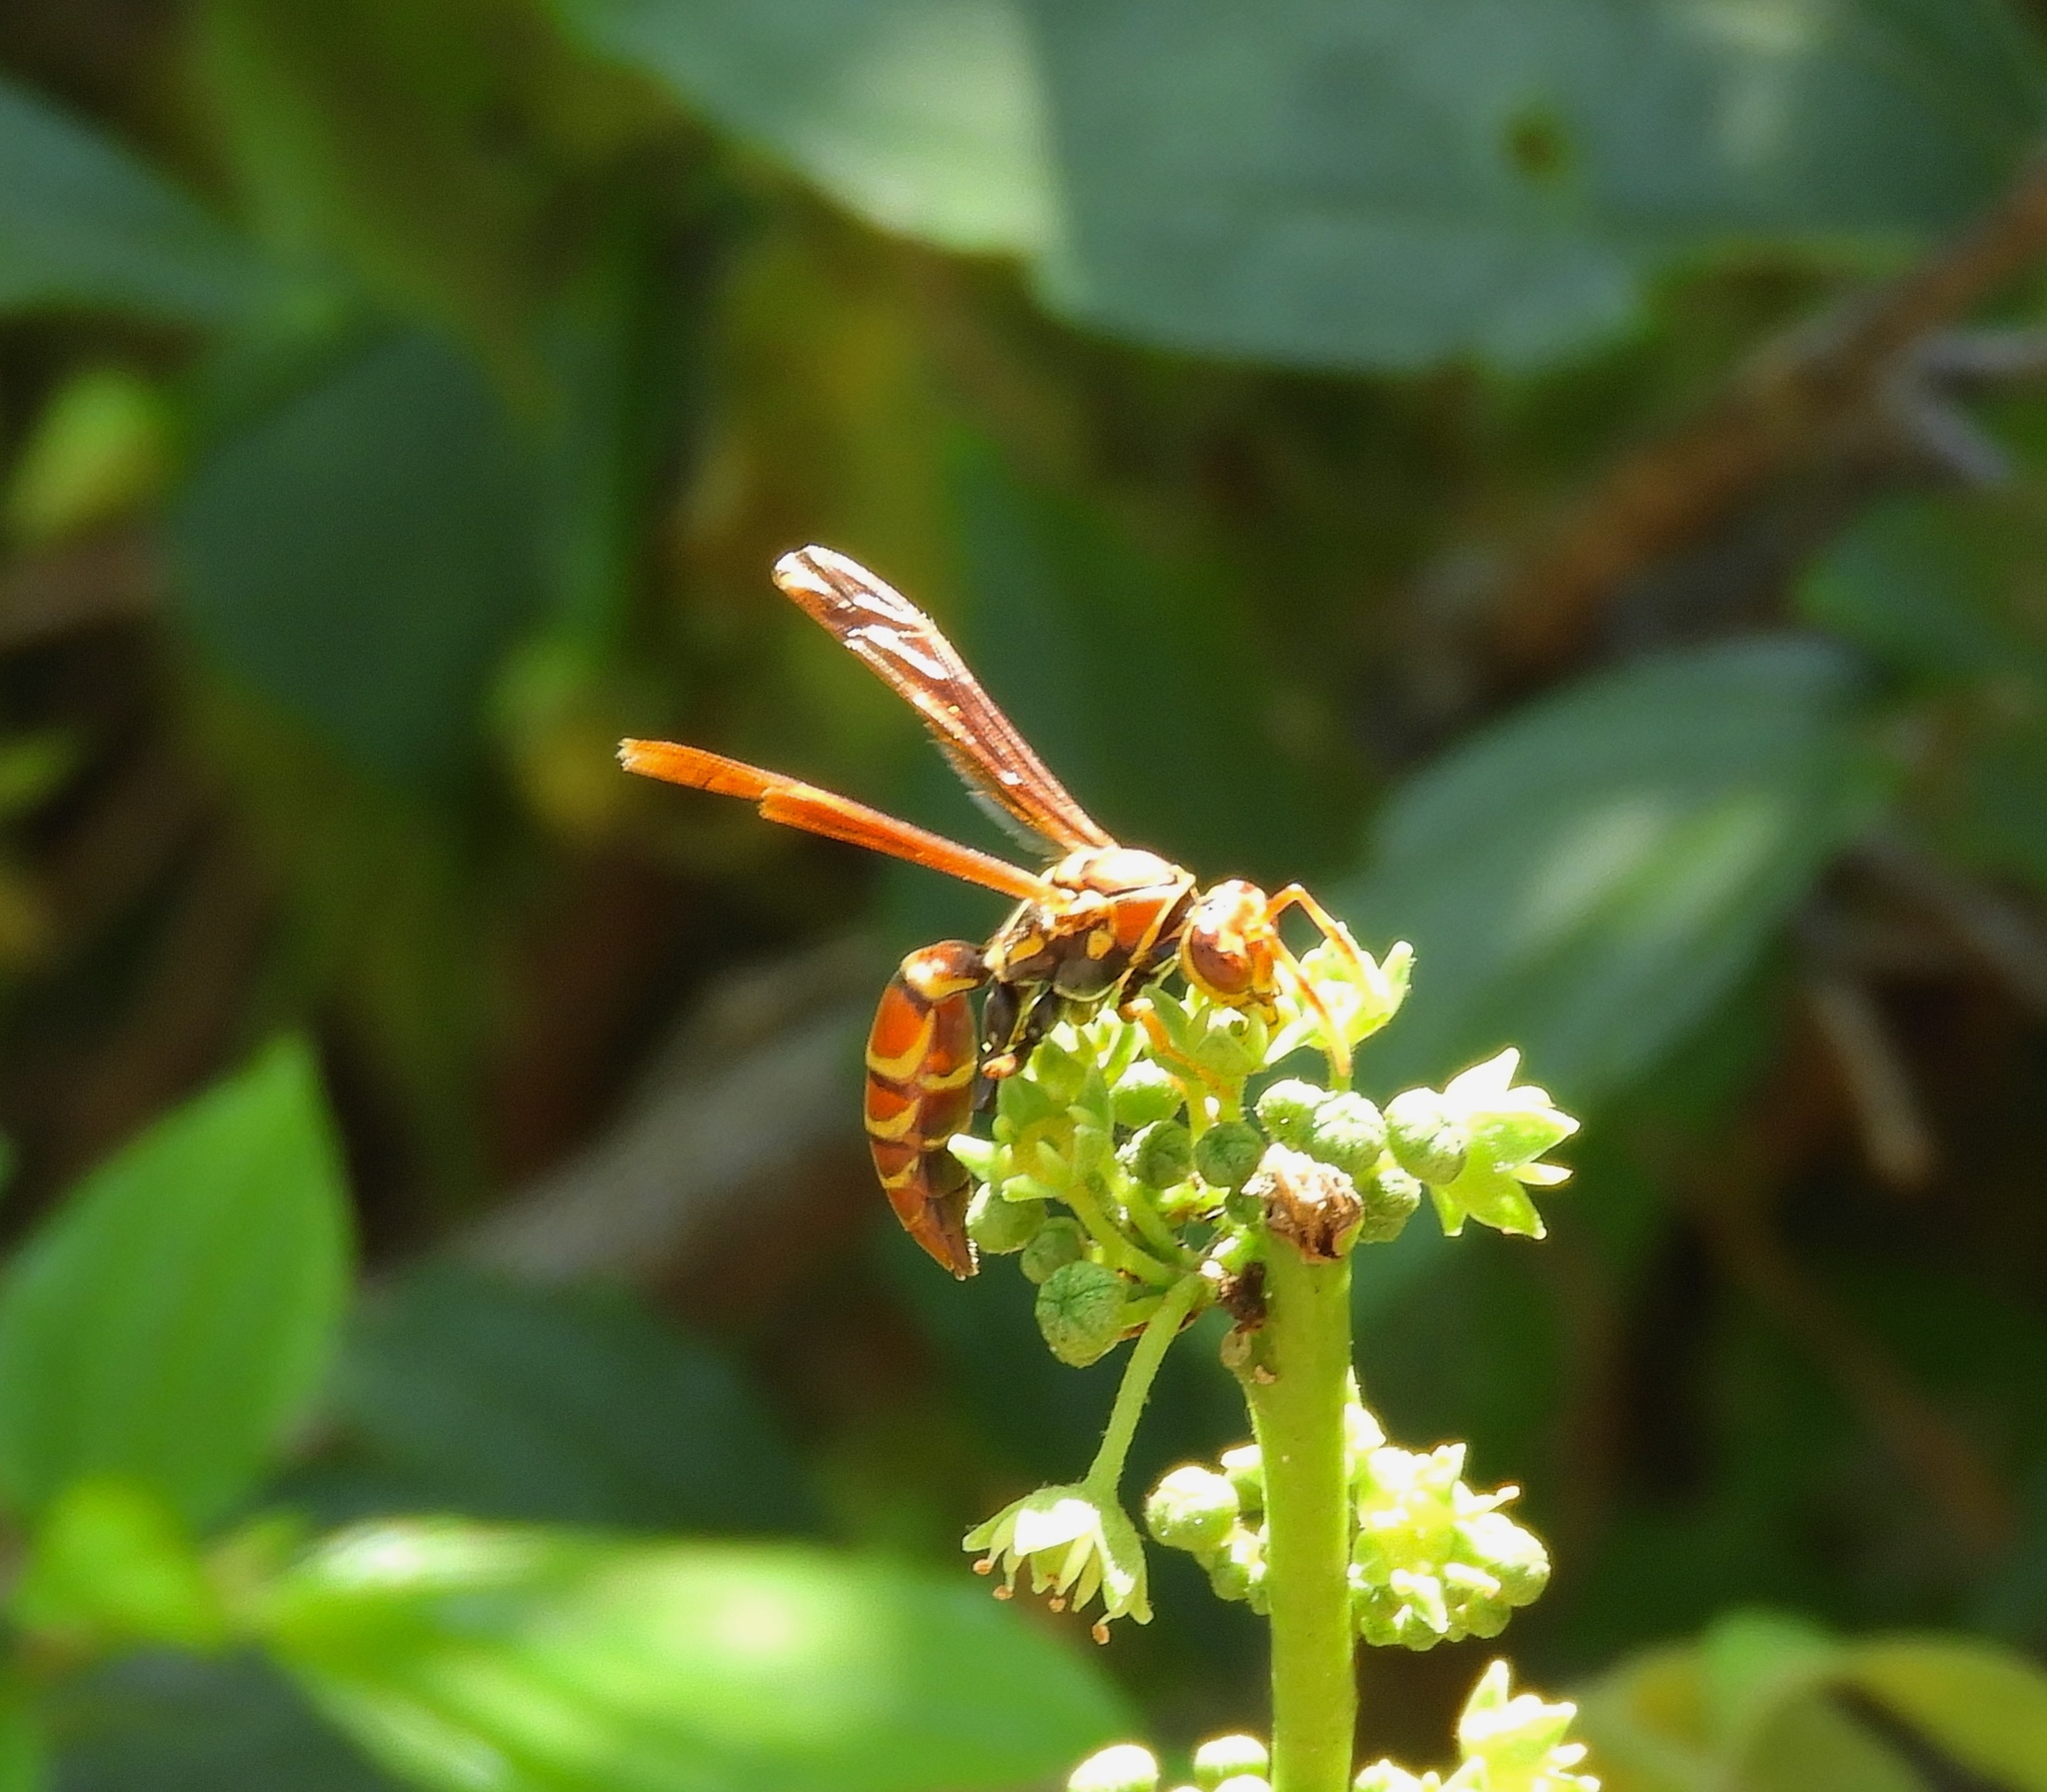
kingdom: Animalia
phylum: Arthropoda
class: Insecta
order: Hymenoptera
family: Eumenidae
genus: Polistes
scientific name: Polistes instabilis
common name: Unstable paper wasp
